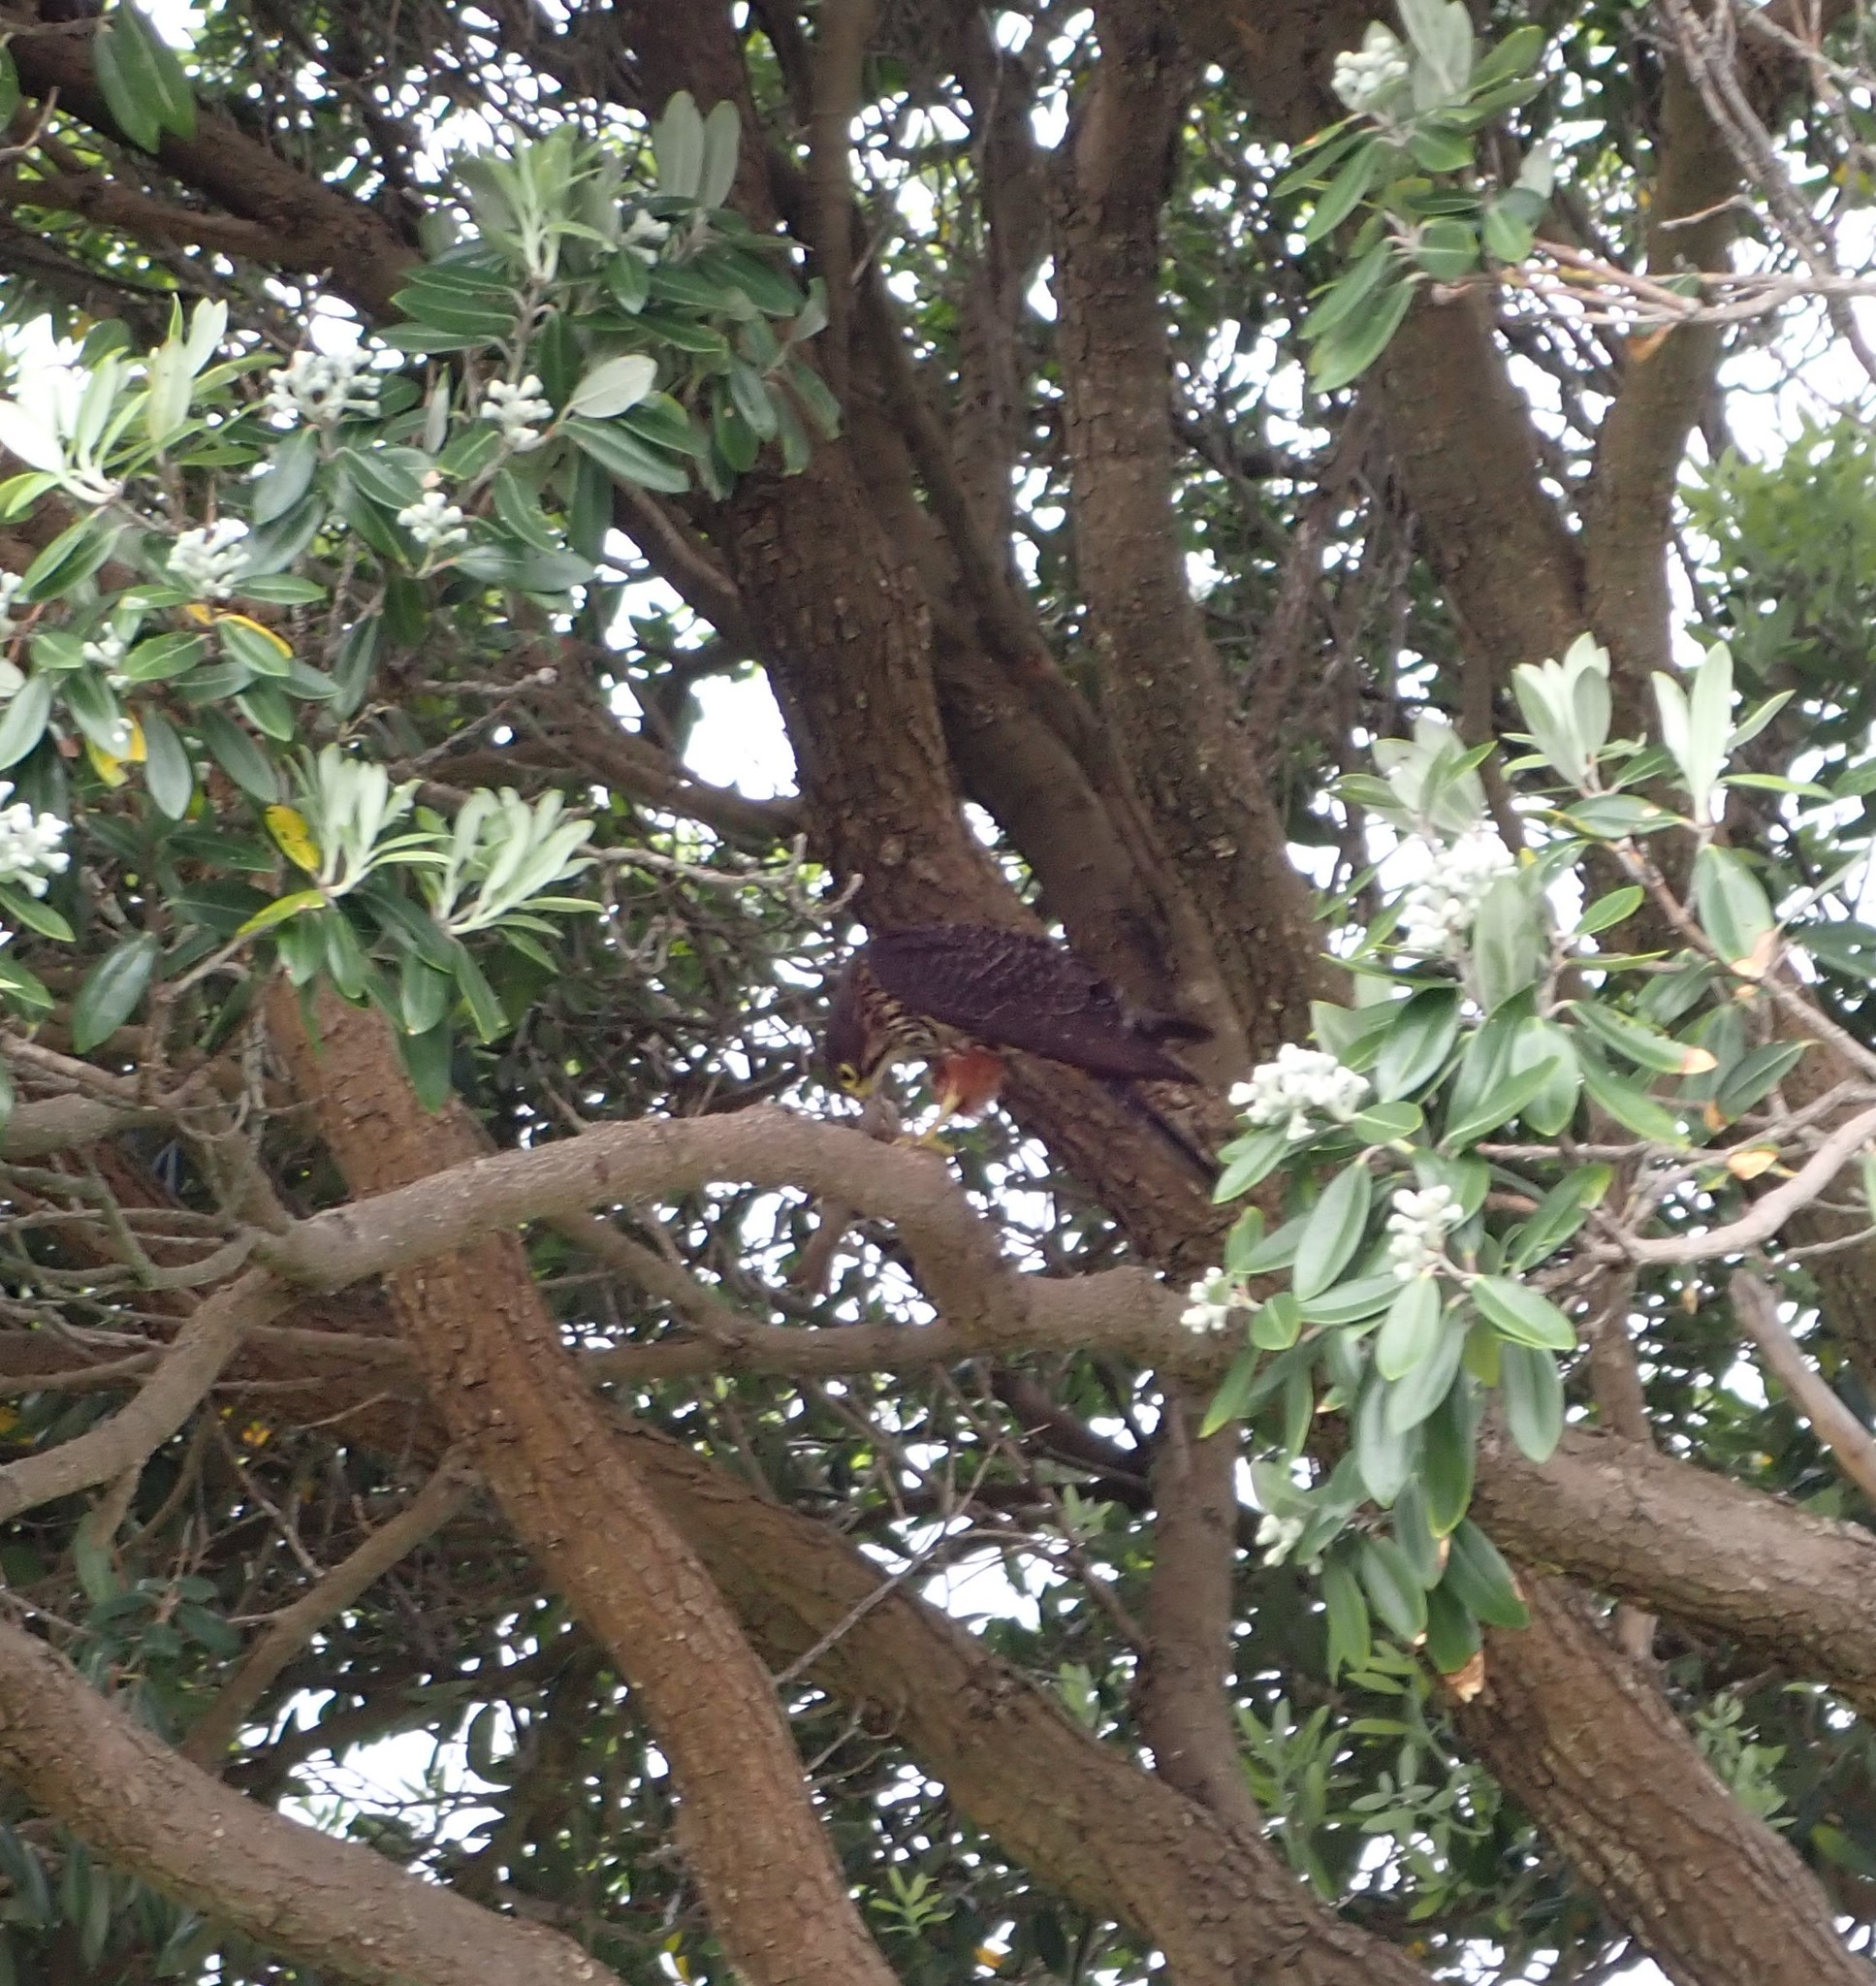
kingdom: Animalia
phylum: Chordata
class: Aves
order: Falconiformes
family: Falconidae
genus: Falco
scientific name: Falco novaeseelandiae
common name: New zealand falcon
